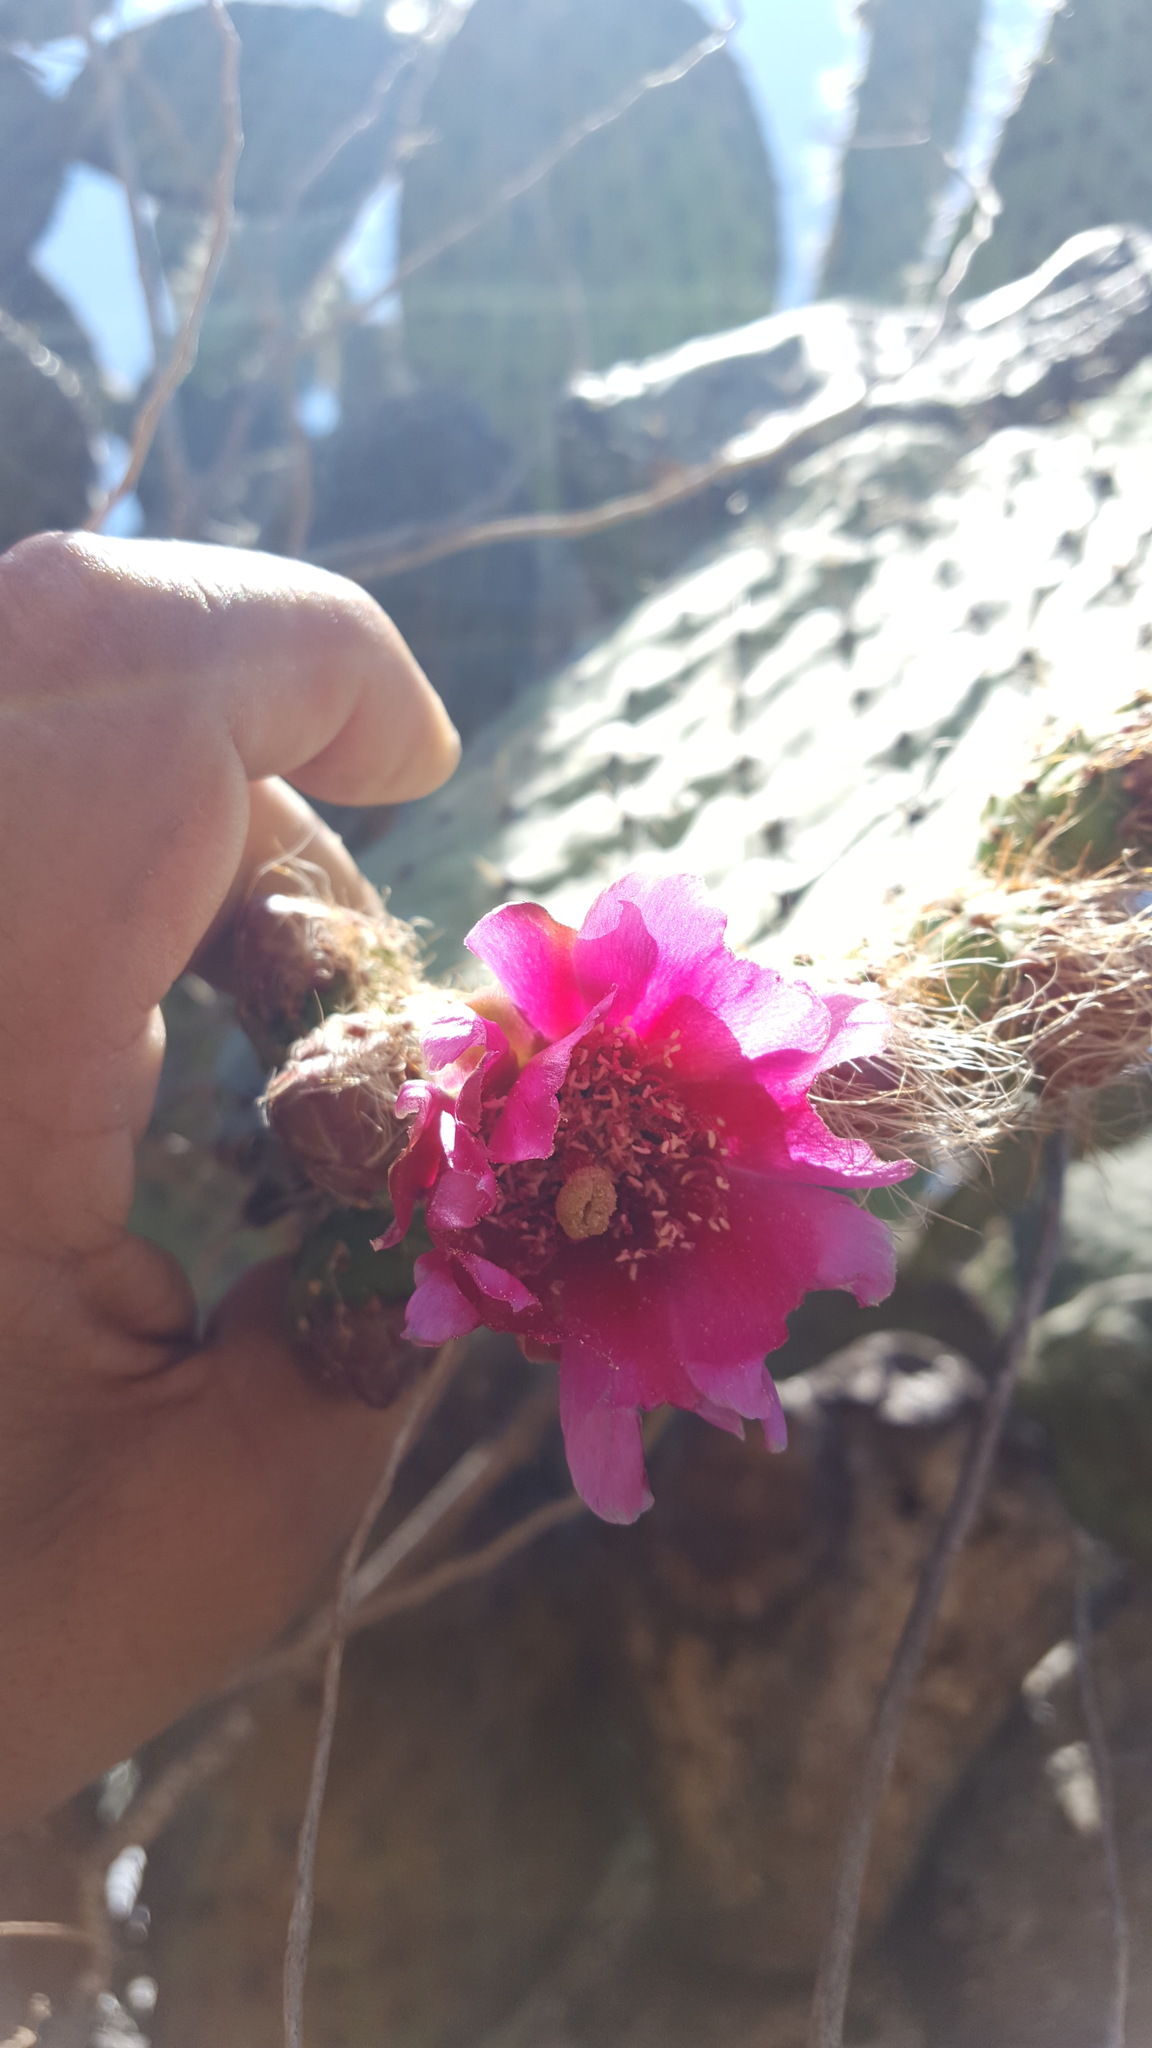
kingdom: Plantae
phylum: Tracheophyta
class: Magnoliopsida
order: Caryophyllales
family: Cactaceae
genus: Opuntia
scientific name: Opuntia pilifera
